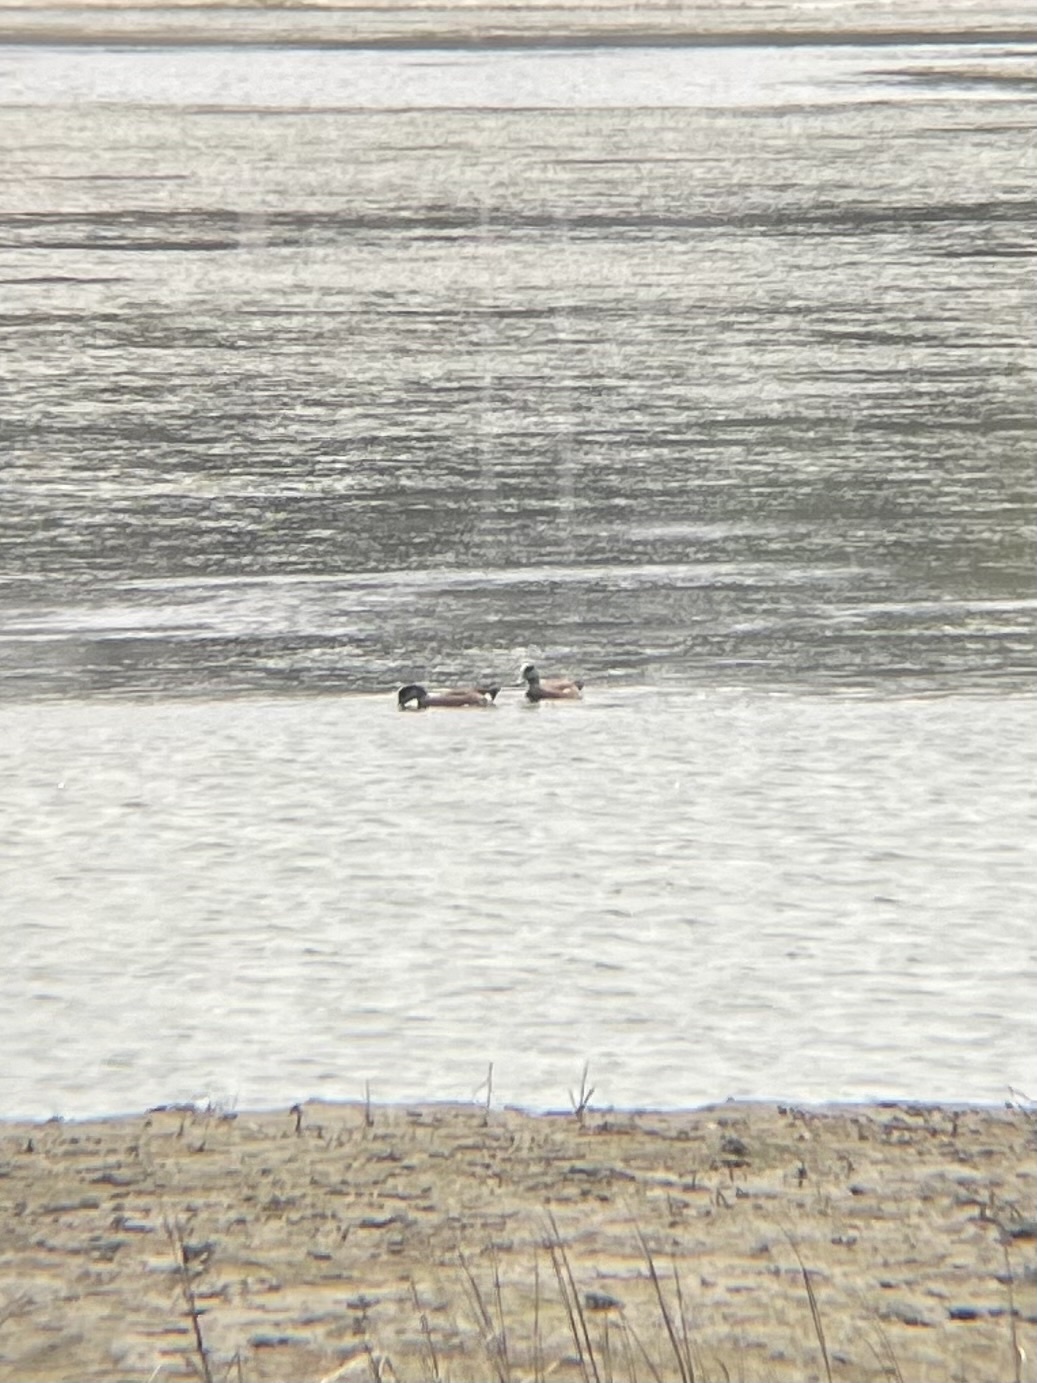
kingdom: Animalia
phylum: Chordata
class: Aves
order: Anseriformes
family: Anatidae
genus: Mareca
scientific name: Mareca americana
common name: American wigeon
